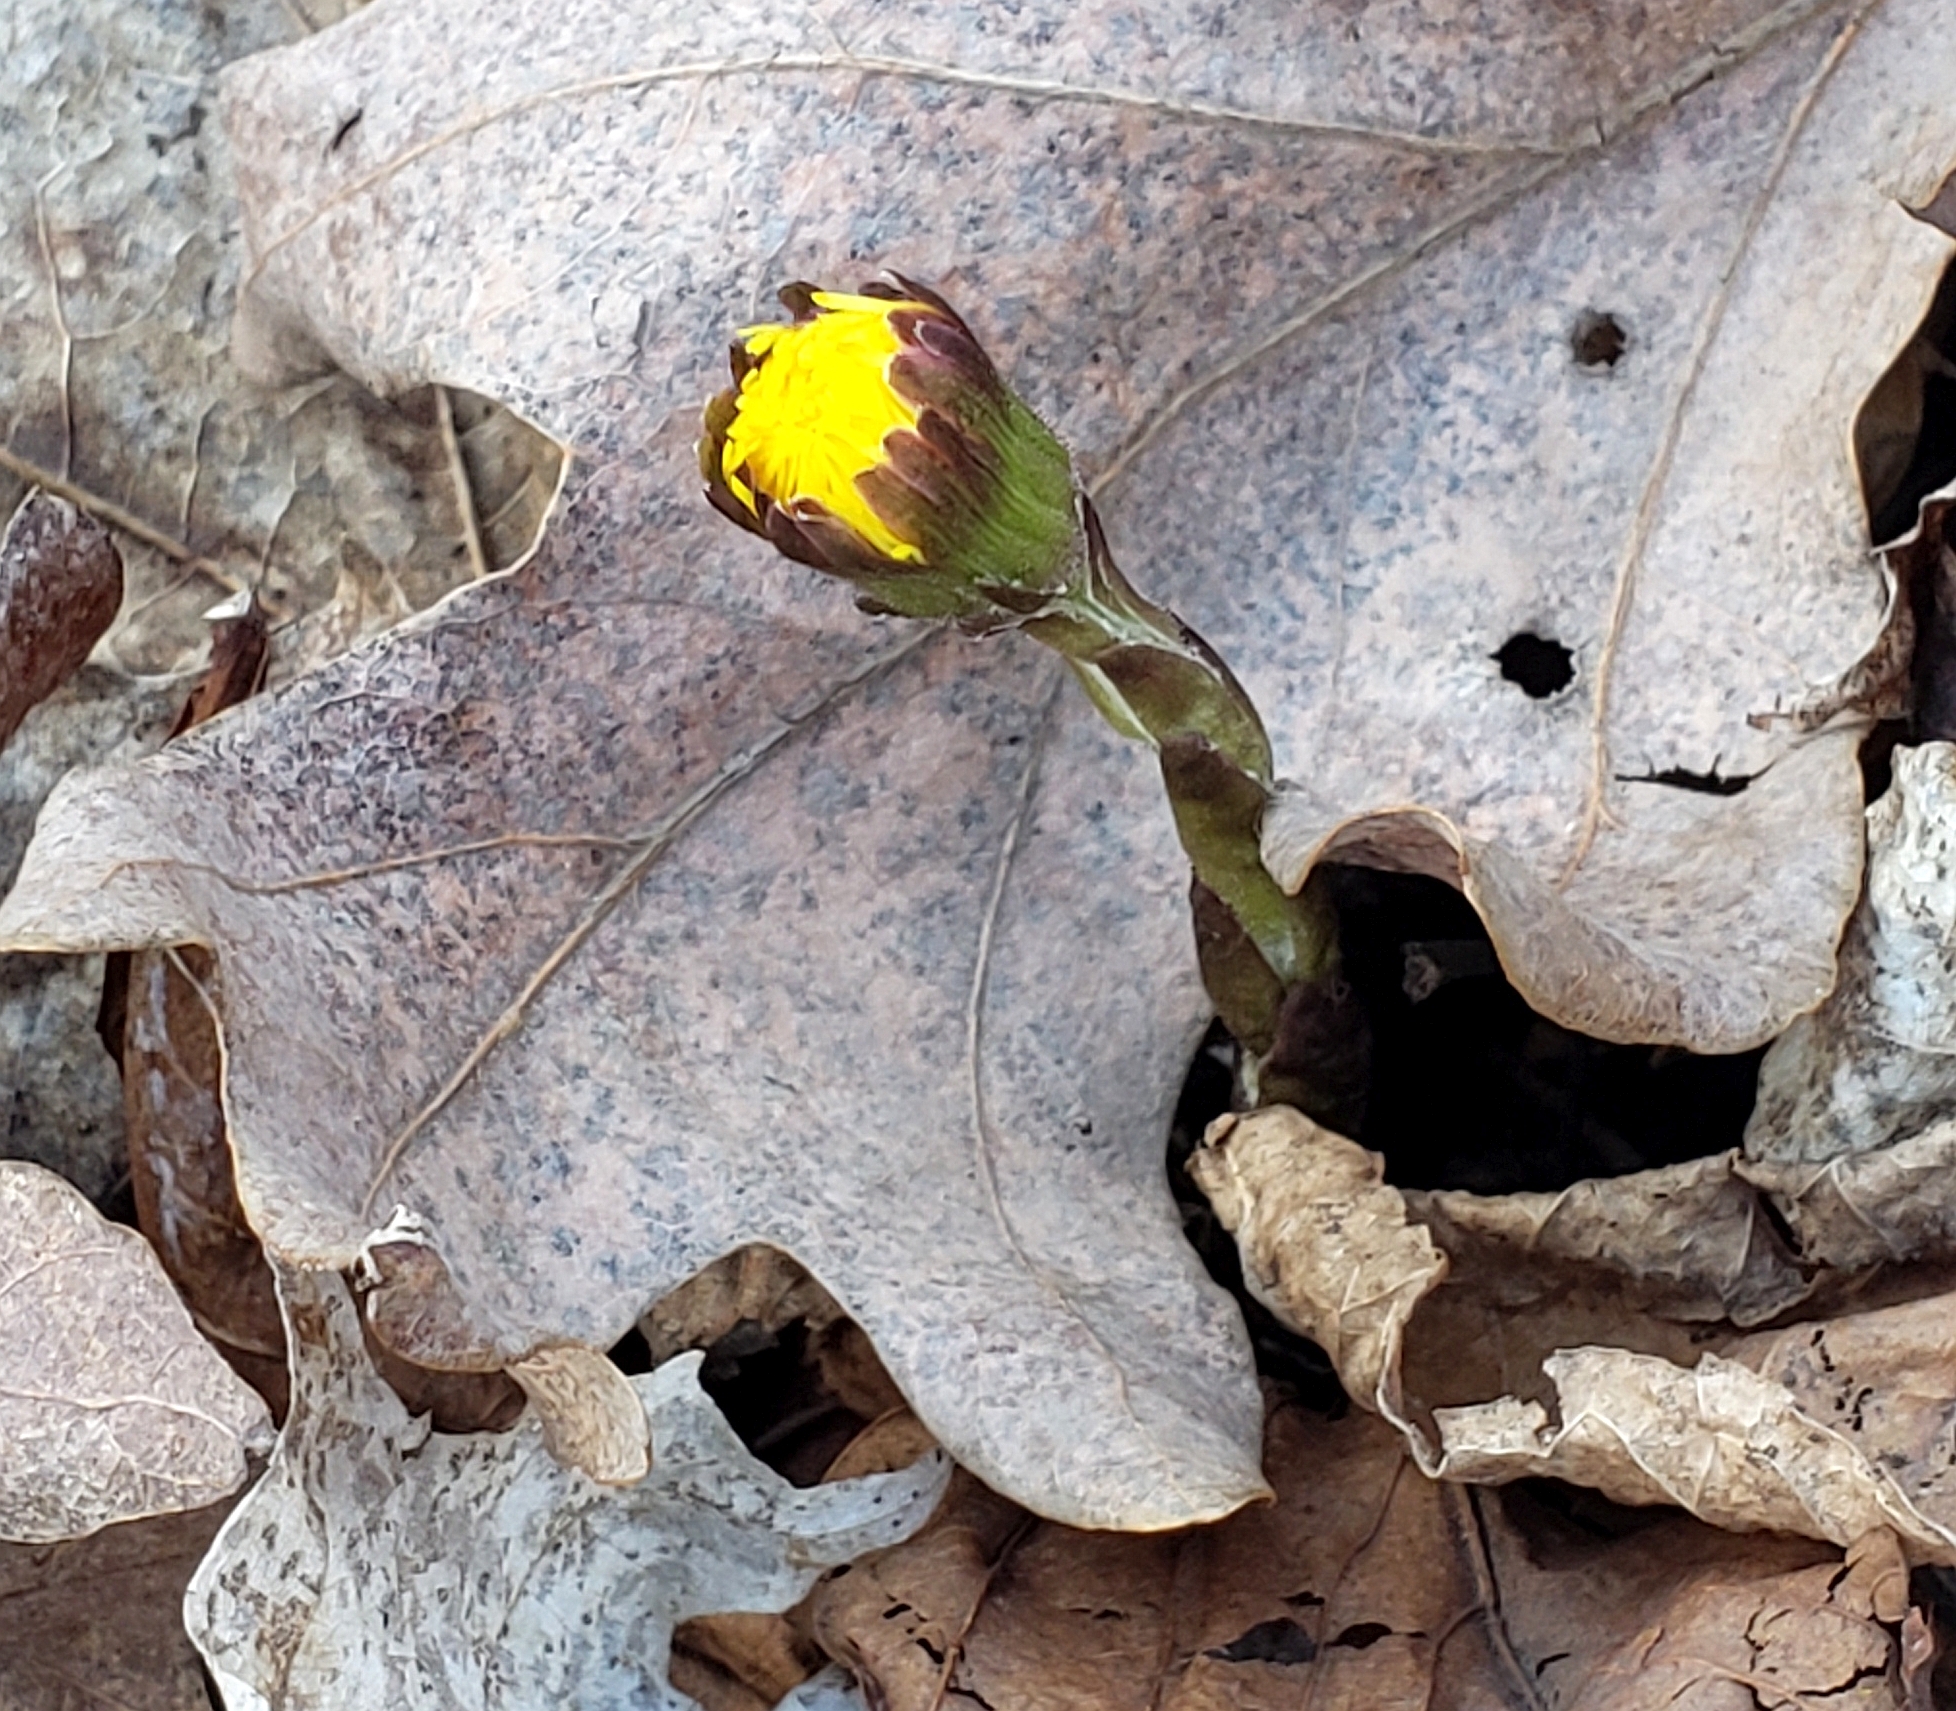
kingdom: Plantae
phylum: Tracheophyta
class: Magnoliopsida
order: Asterales
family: Asteraceae
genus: Tussilago
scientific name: Tussilago farfara
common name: Coltsfoot
